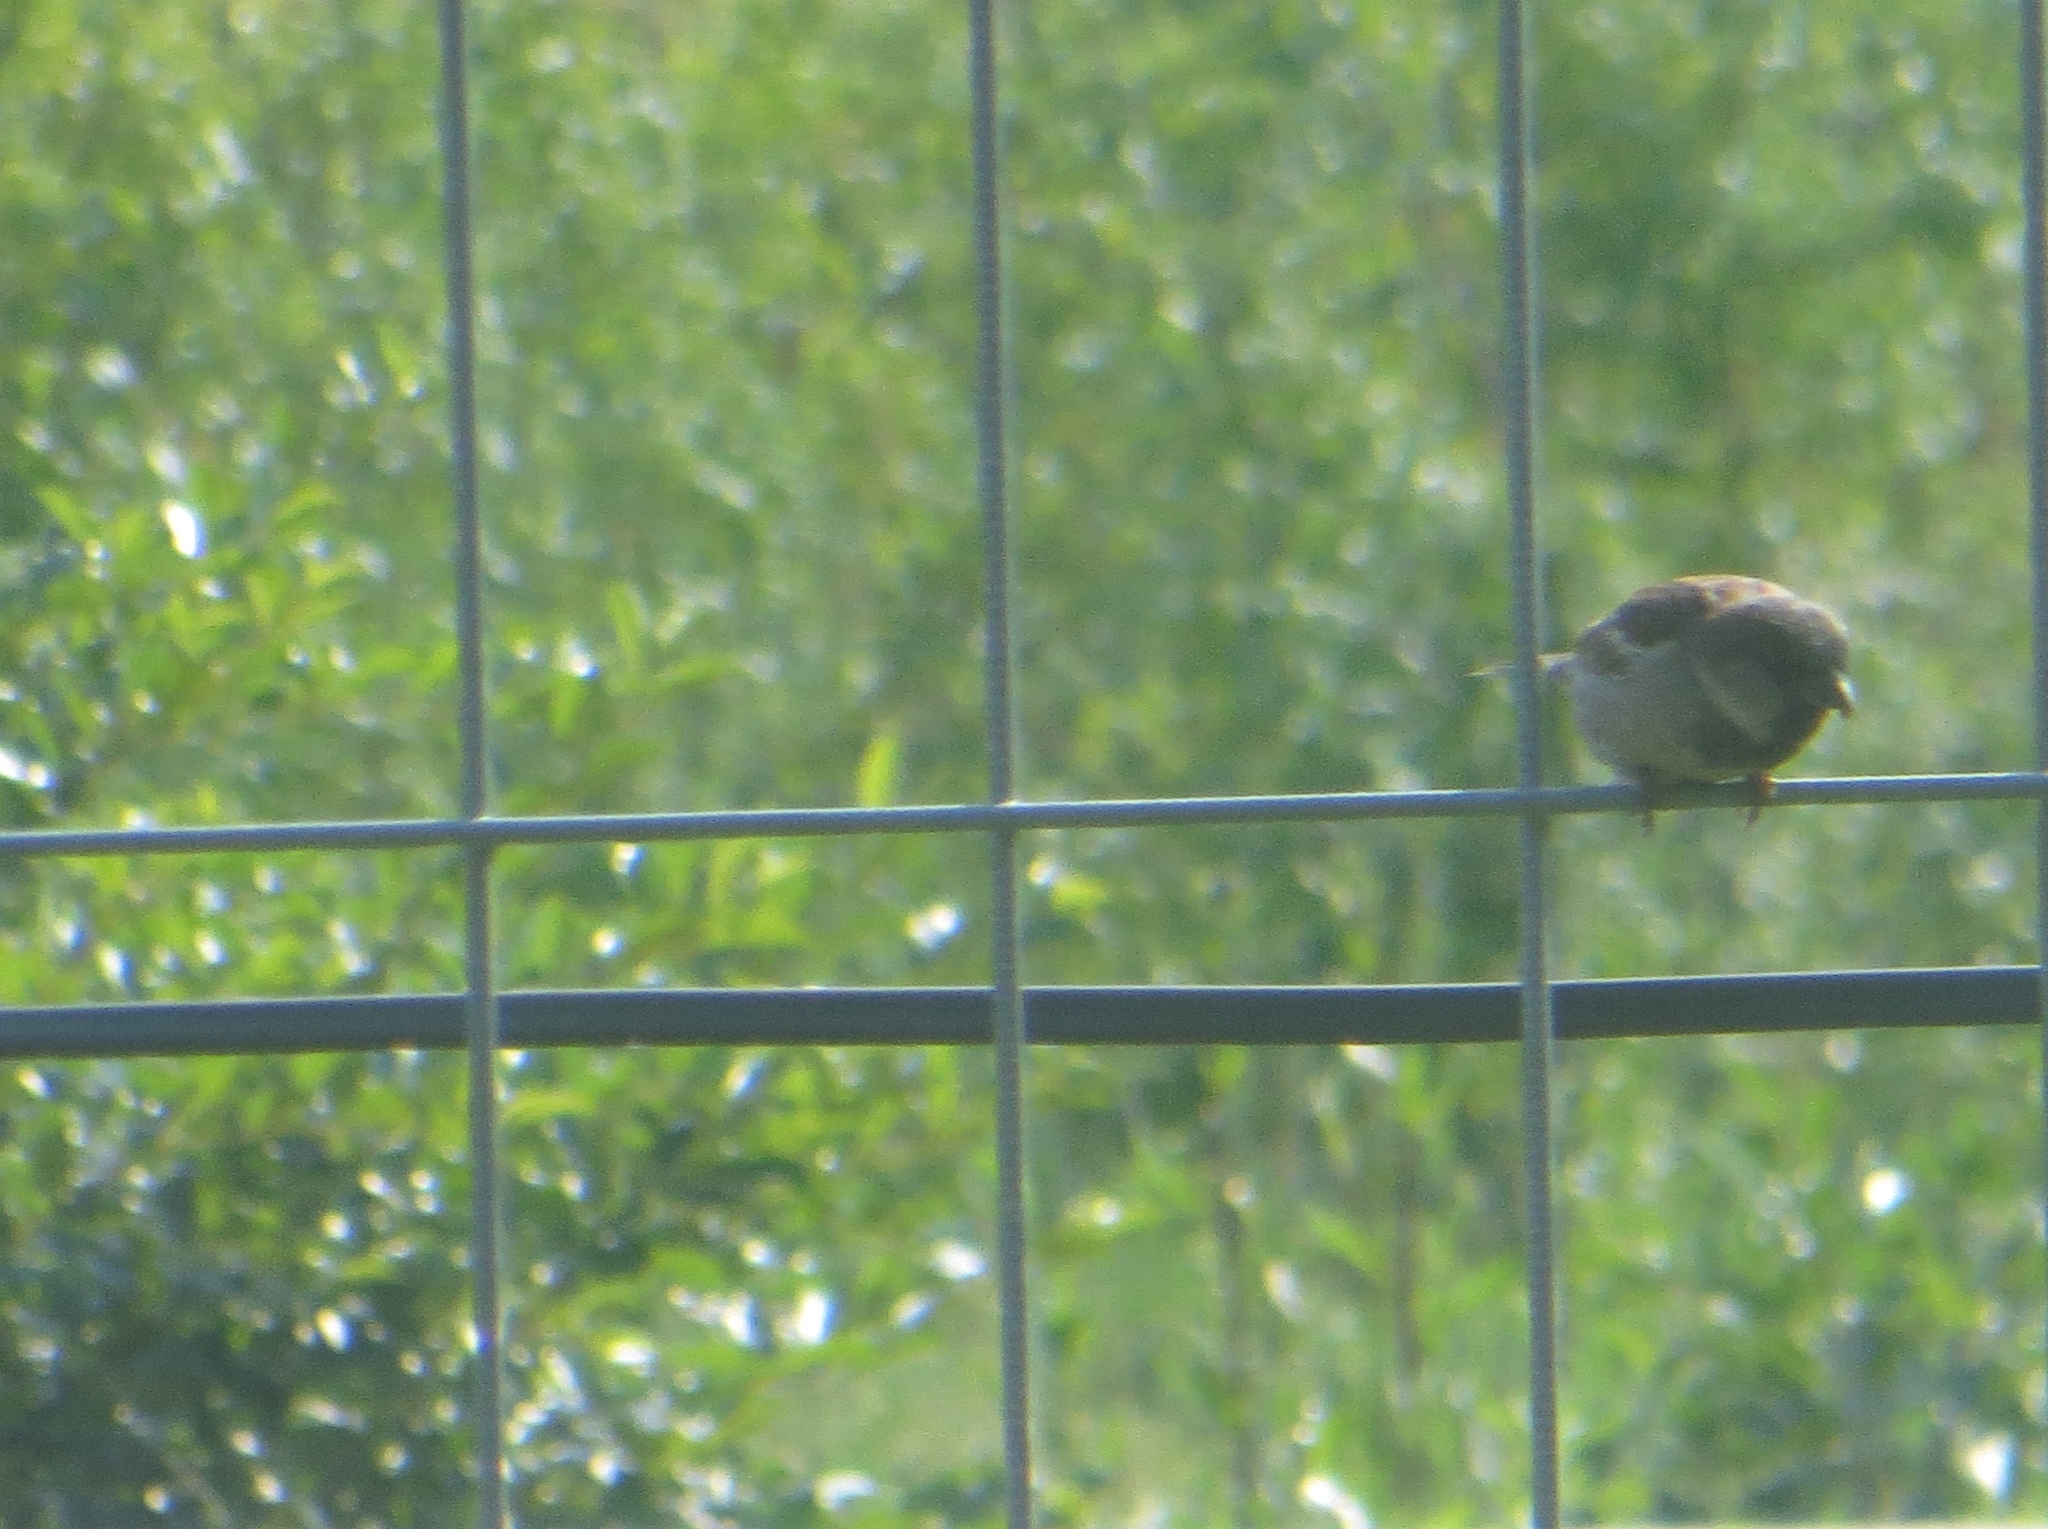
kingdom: Animalia
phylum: Chordata
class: Aves
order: Passeriformes
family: Passeridae
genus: Passer
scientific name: Passer domesticus
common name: House sparrow
